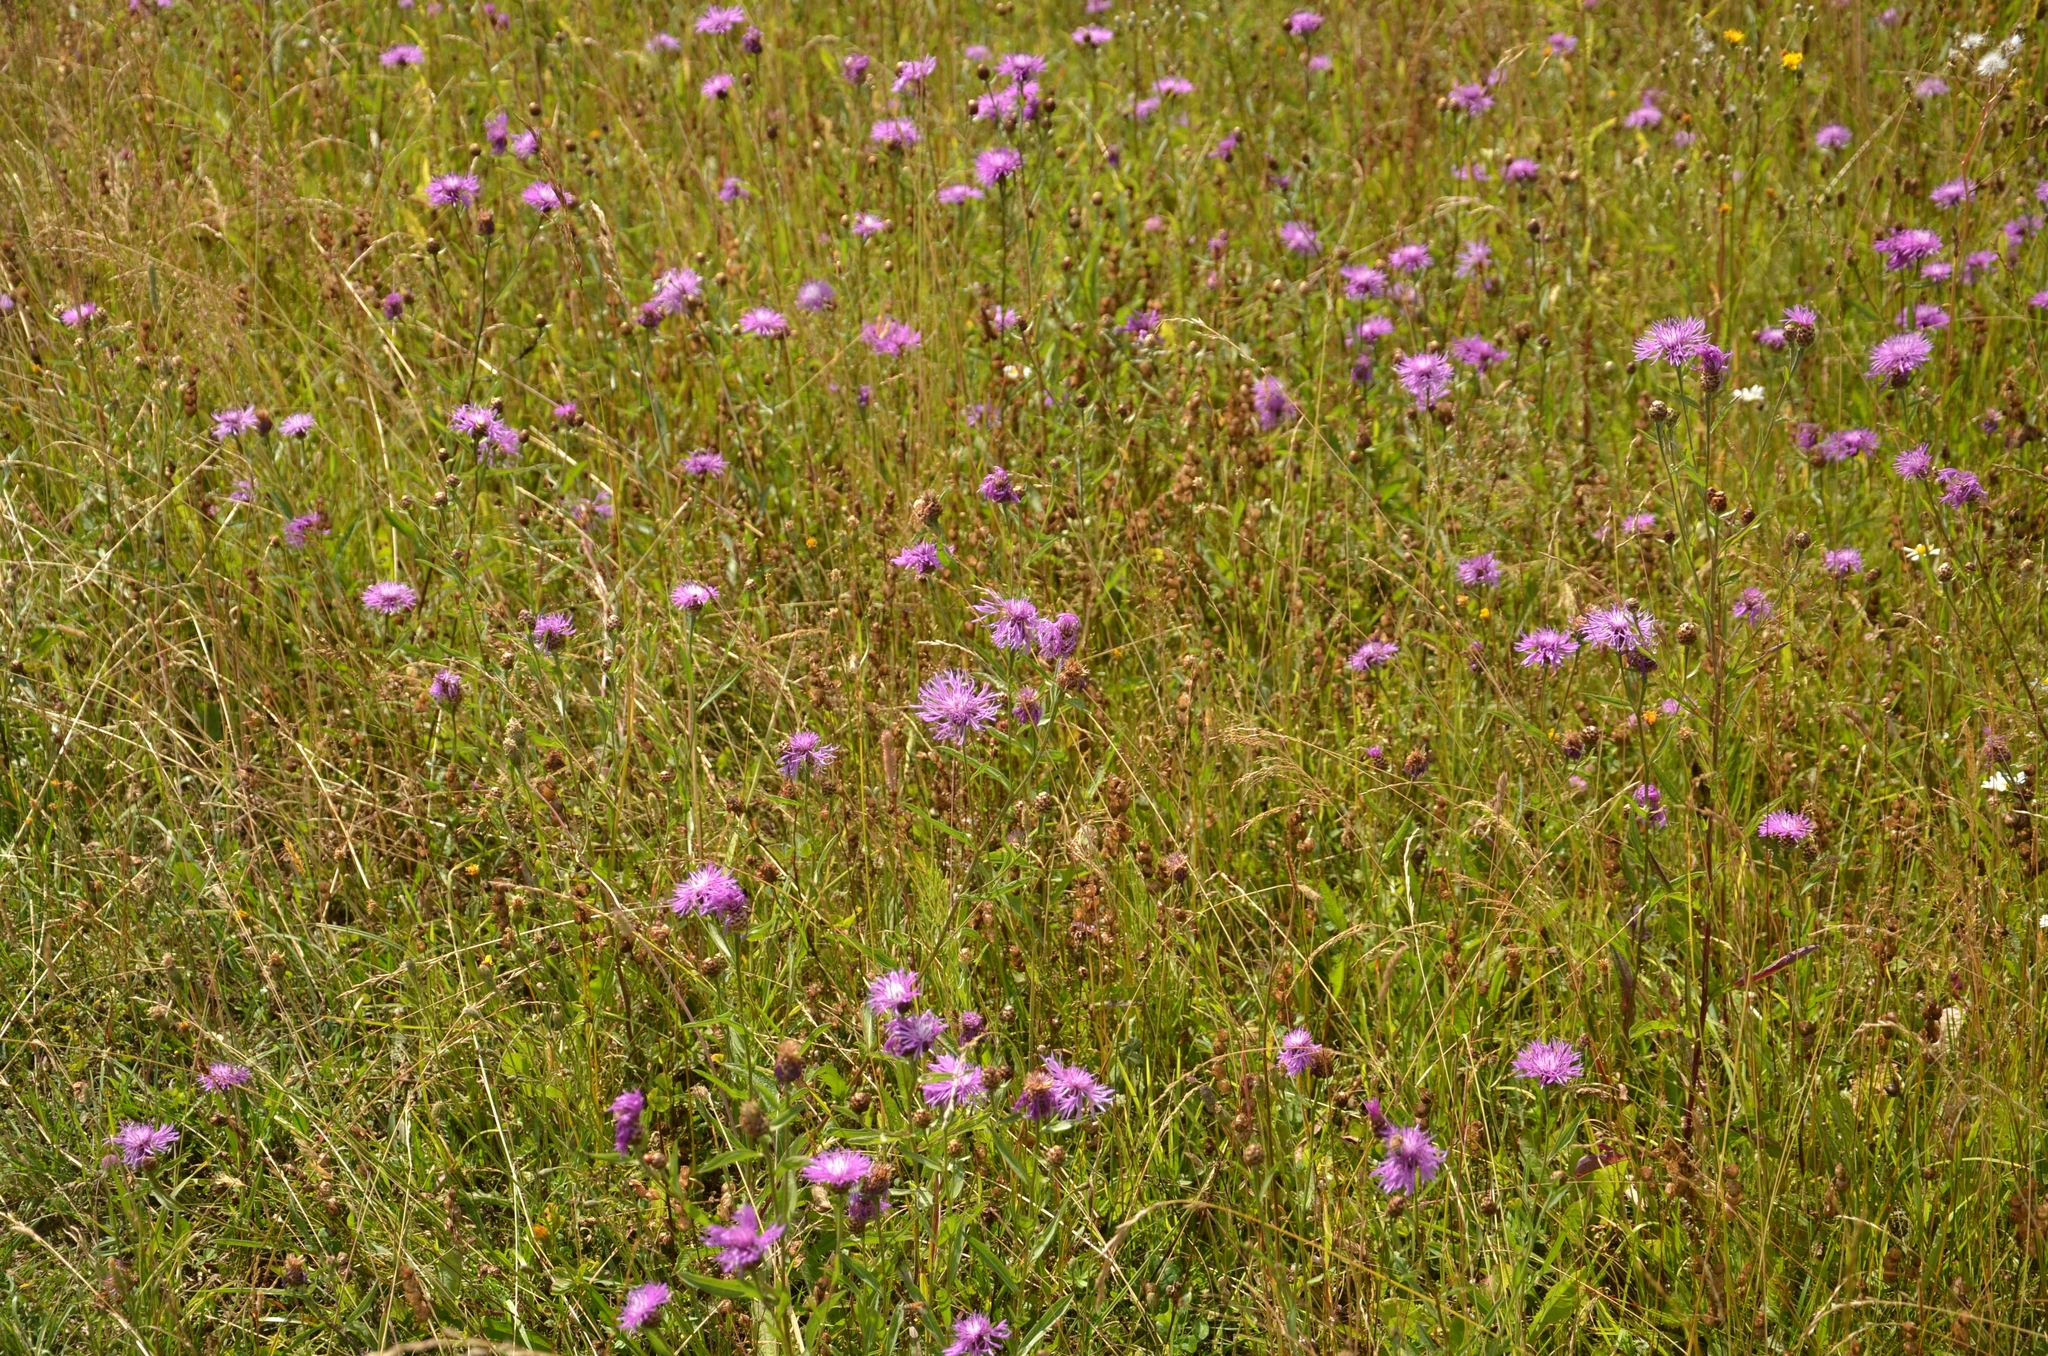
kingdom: Plantae
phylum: Tracheophyta
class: Magnoliopsida
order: Asterales
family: Asteraceae
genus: Centaurea
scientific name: Centaurea jacea
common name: Brown knapweed
